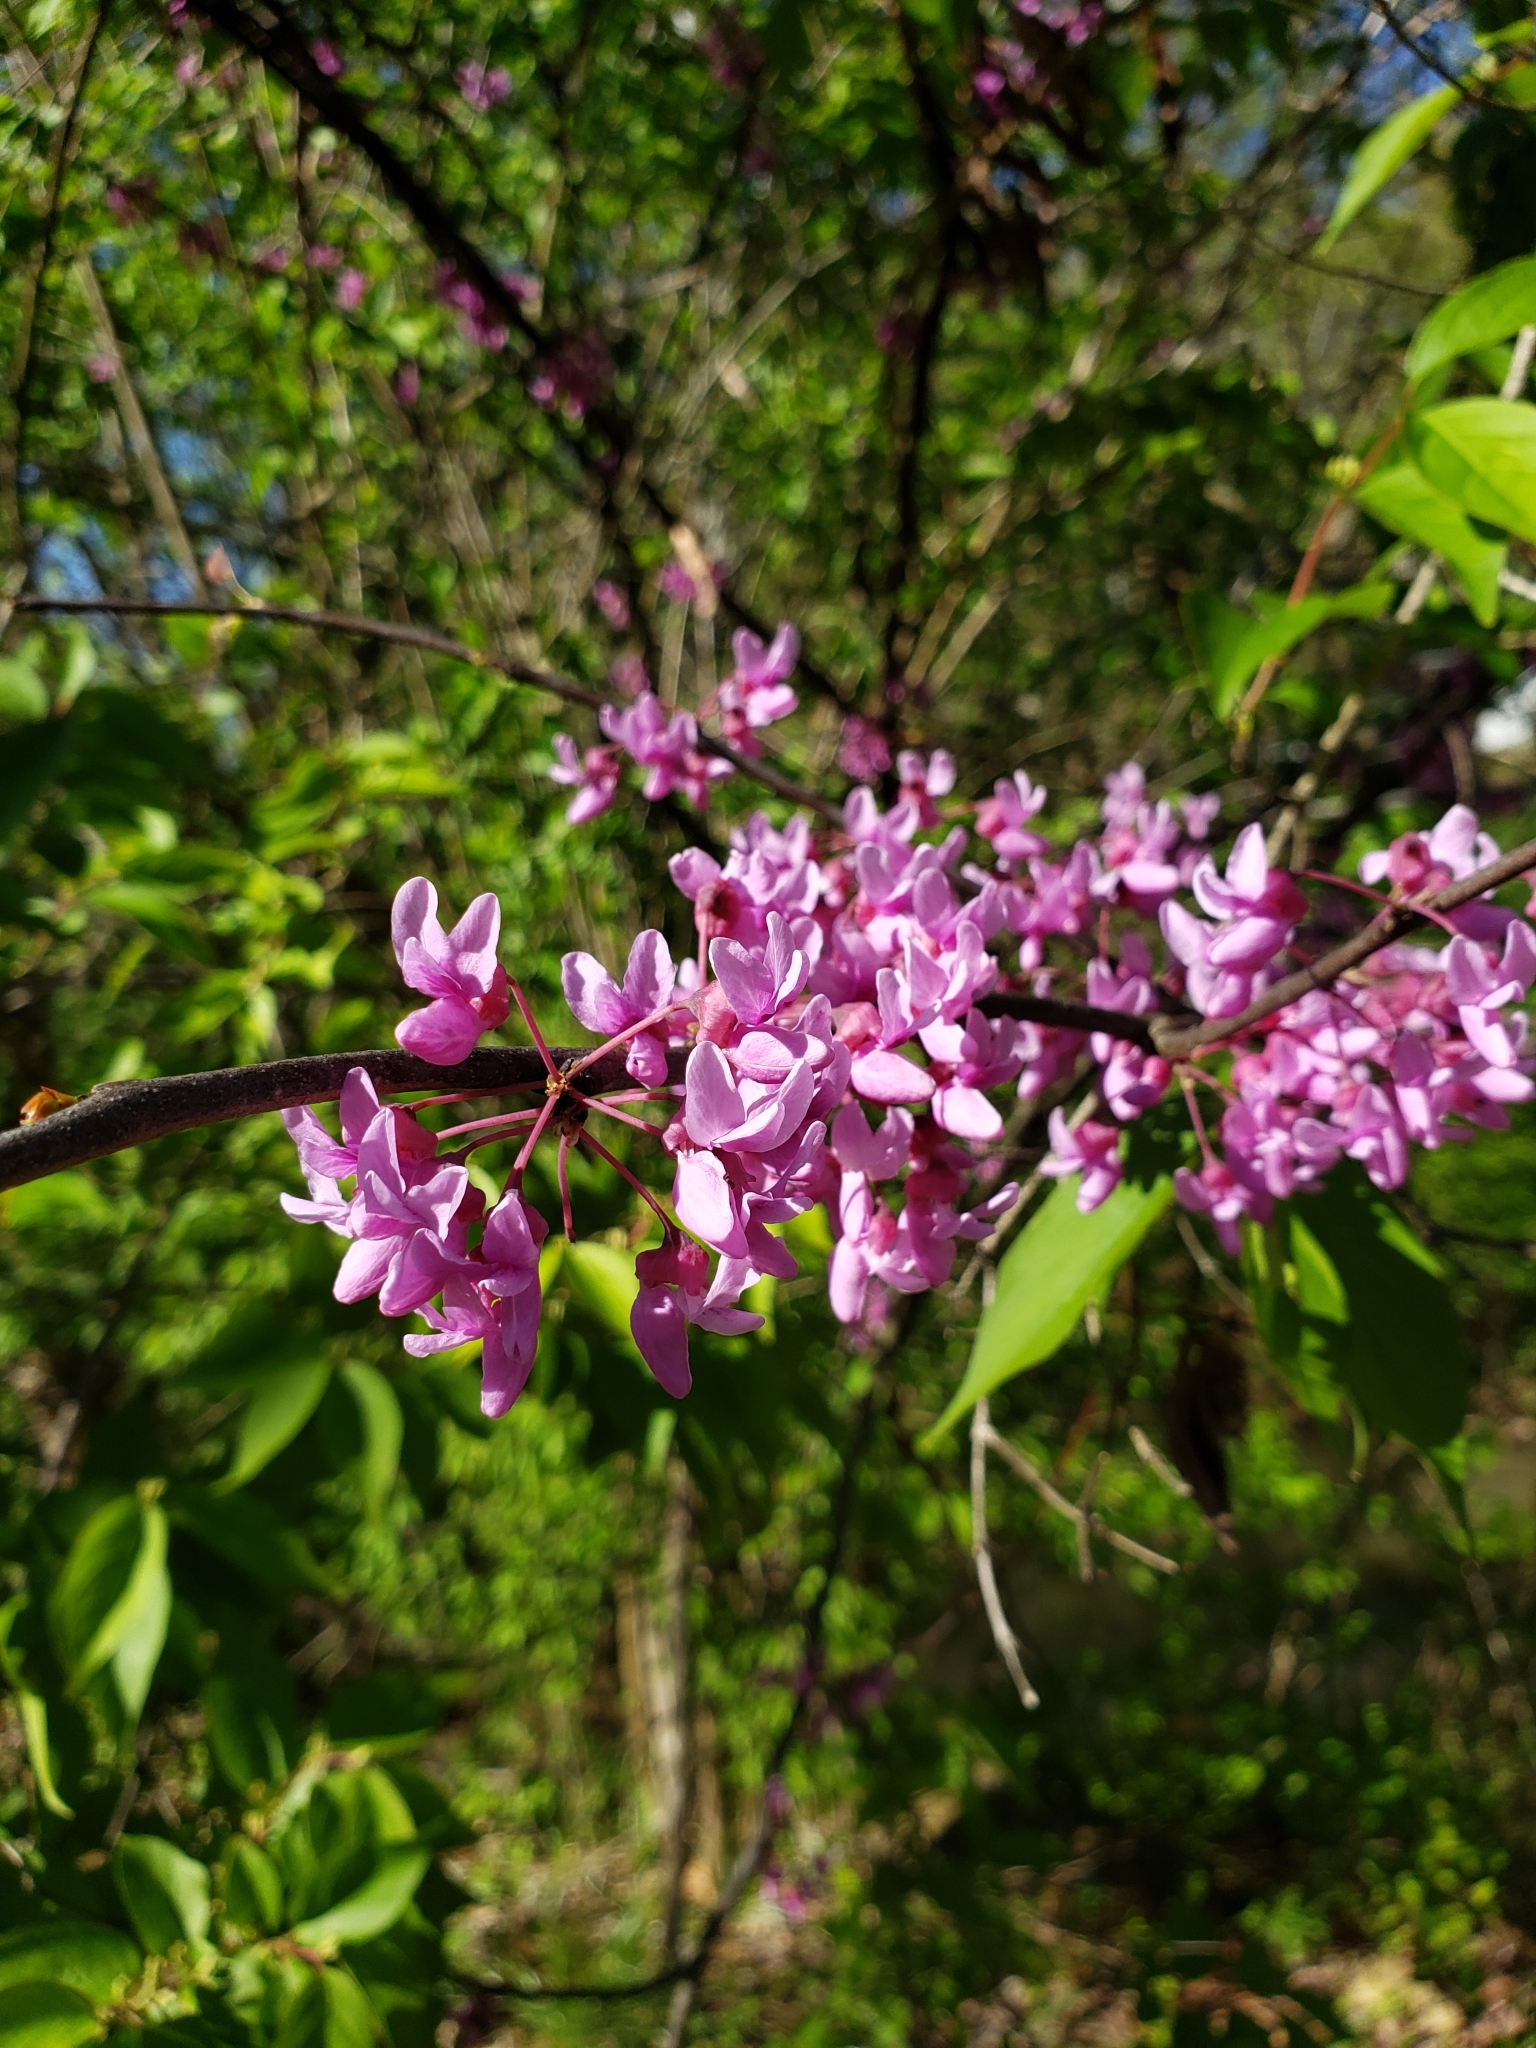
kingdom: Plantae
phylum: Tracheophyta
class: Magnoliopsida
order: Fabales
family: Fabaceae
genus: Cercis
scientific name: Cercis canadensis
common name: Eastern redbud
